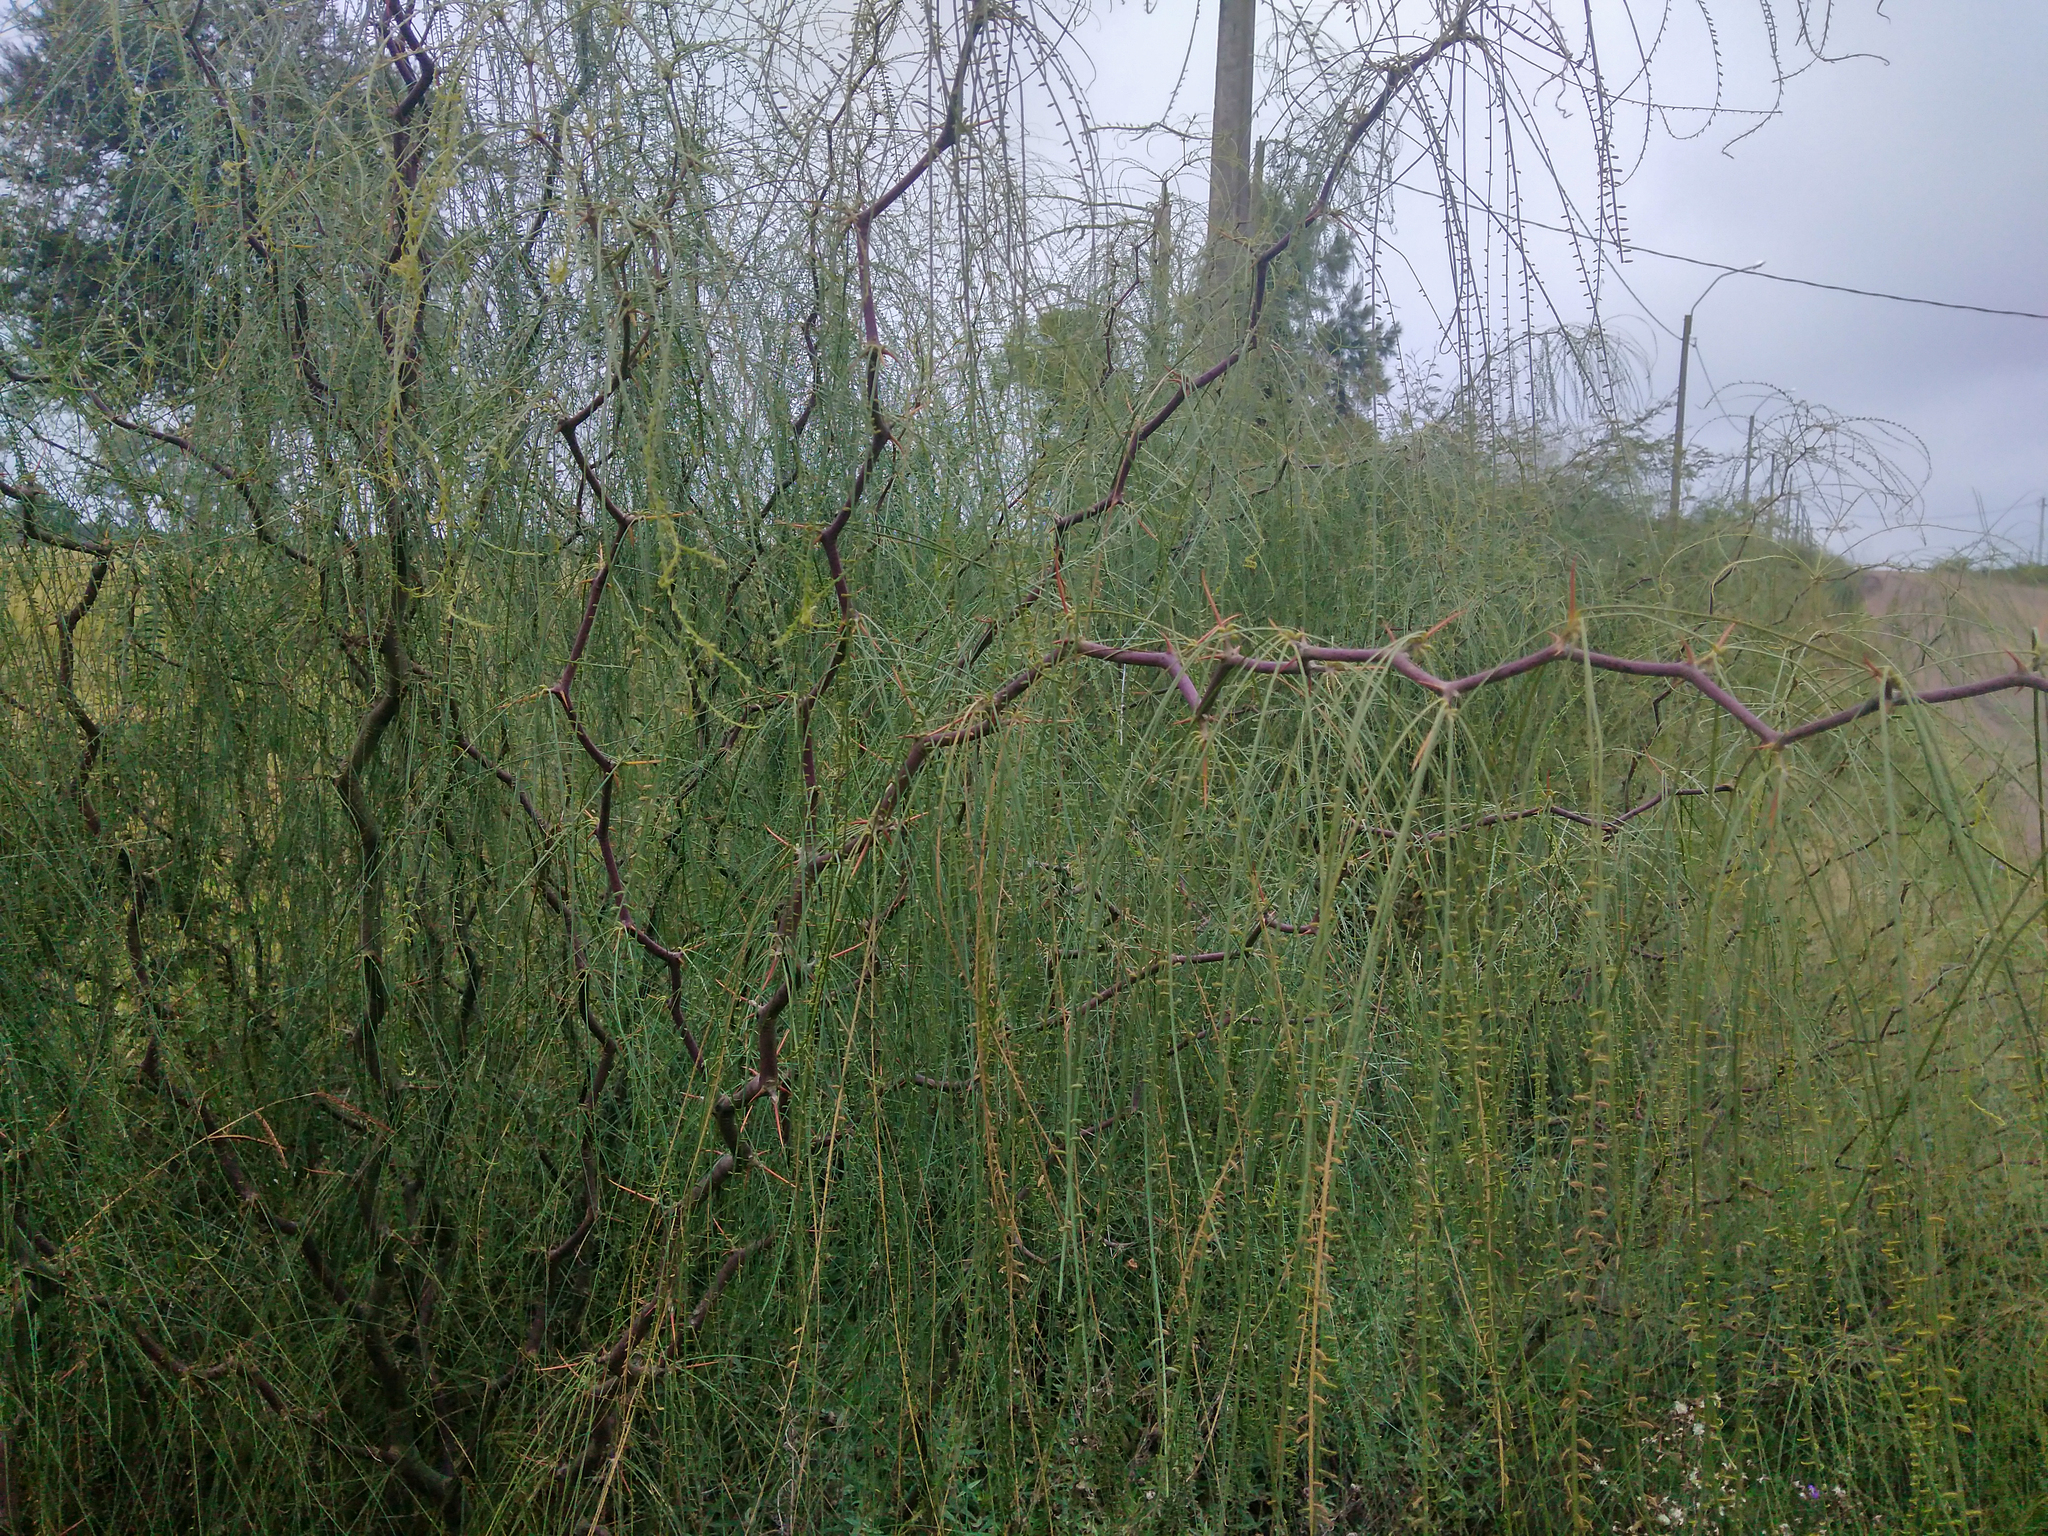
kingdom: Plantae
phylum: Tracheophyta
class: Magnoliopsida
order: Fabales
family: Fabaceae
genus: Parkinsonia
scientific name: Parkinsonia aculeata
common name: Jerusalem thorn
